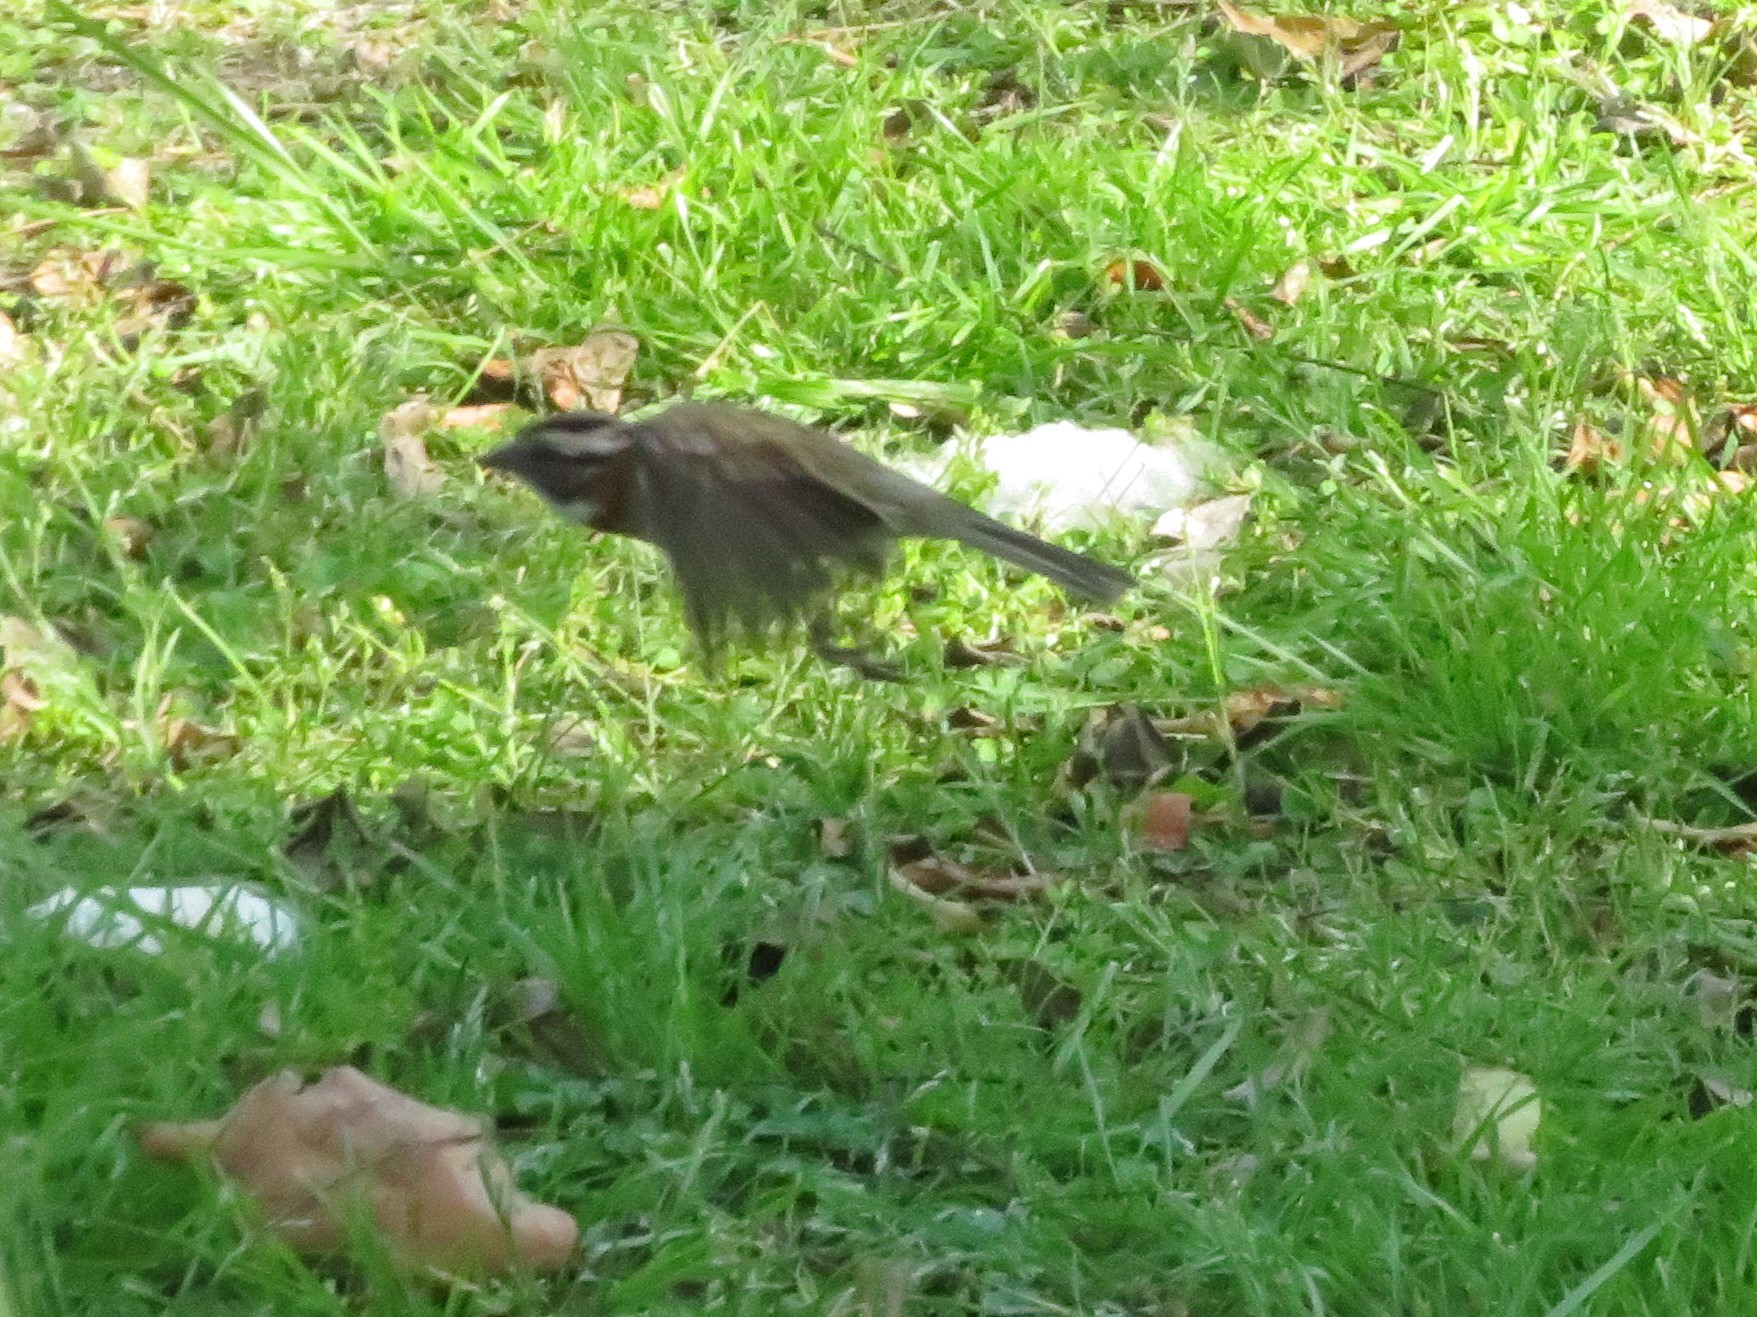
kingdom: Animalia
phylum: Chordata
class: Aves
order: Passeriformes
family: Passerellidae
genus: Zonotrichia
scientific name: Zonotrichia capensis
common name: Rufous-collared sparrow
